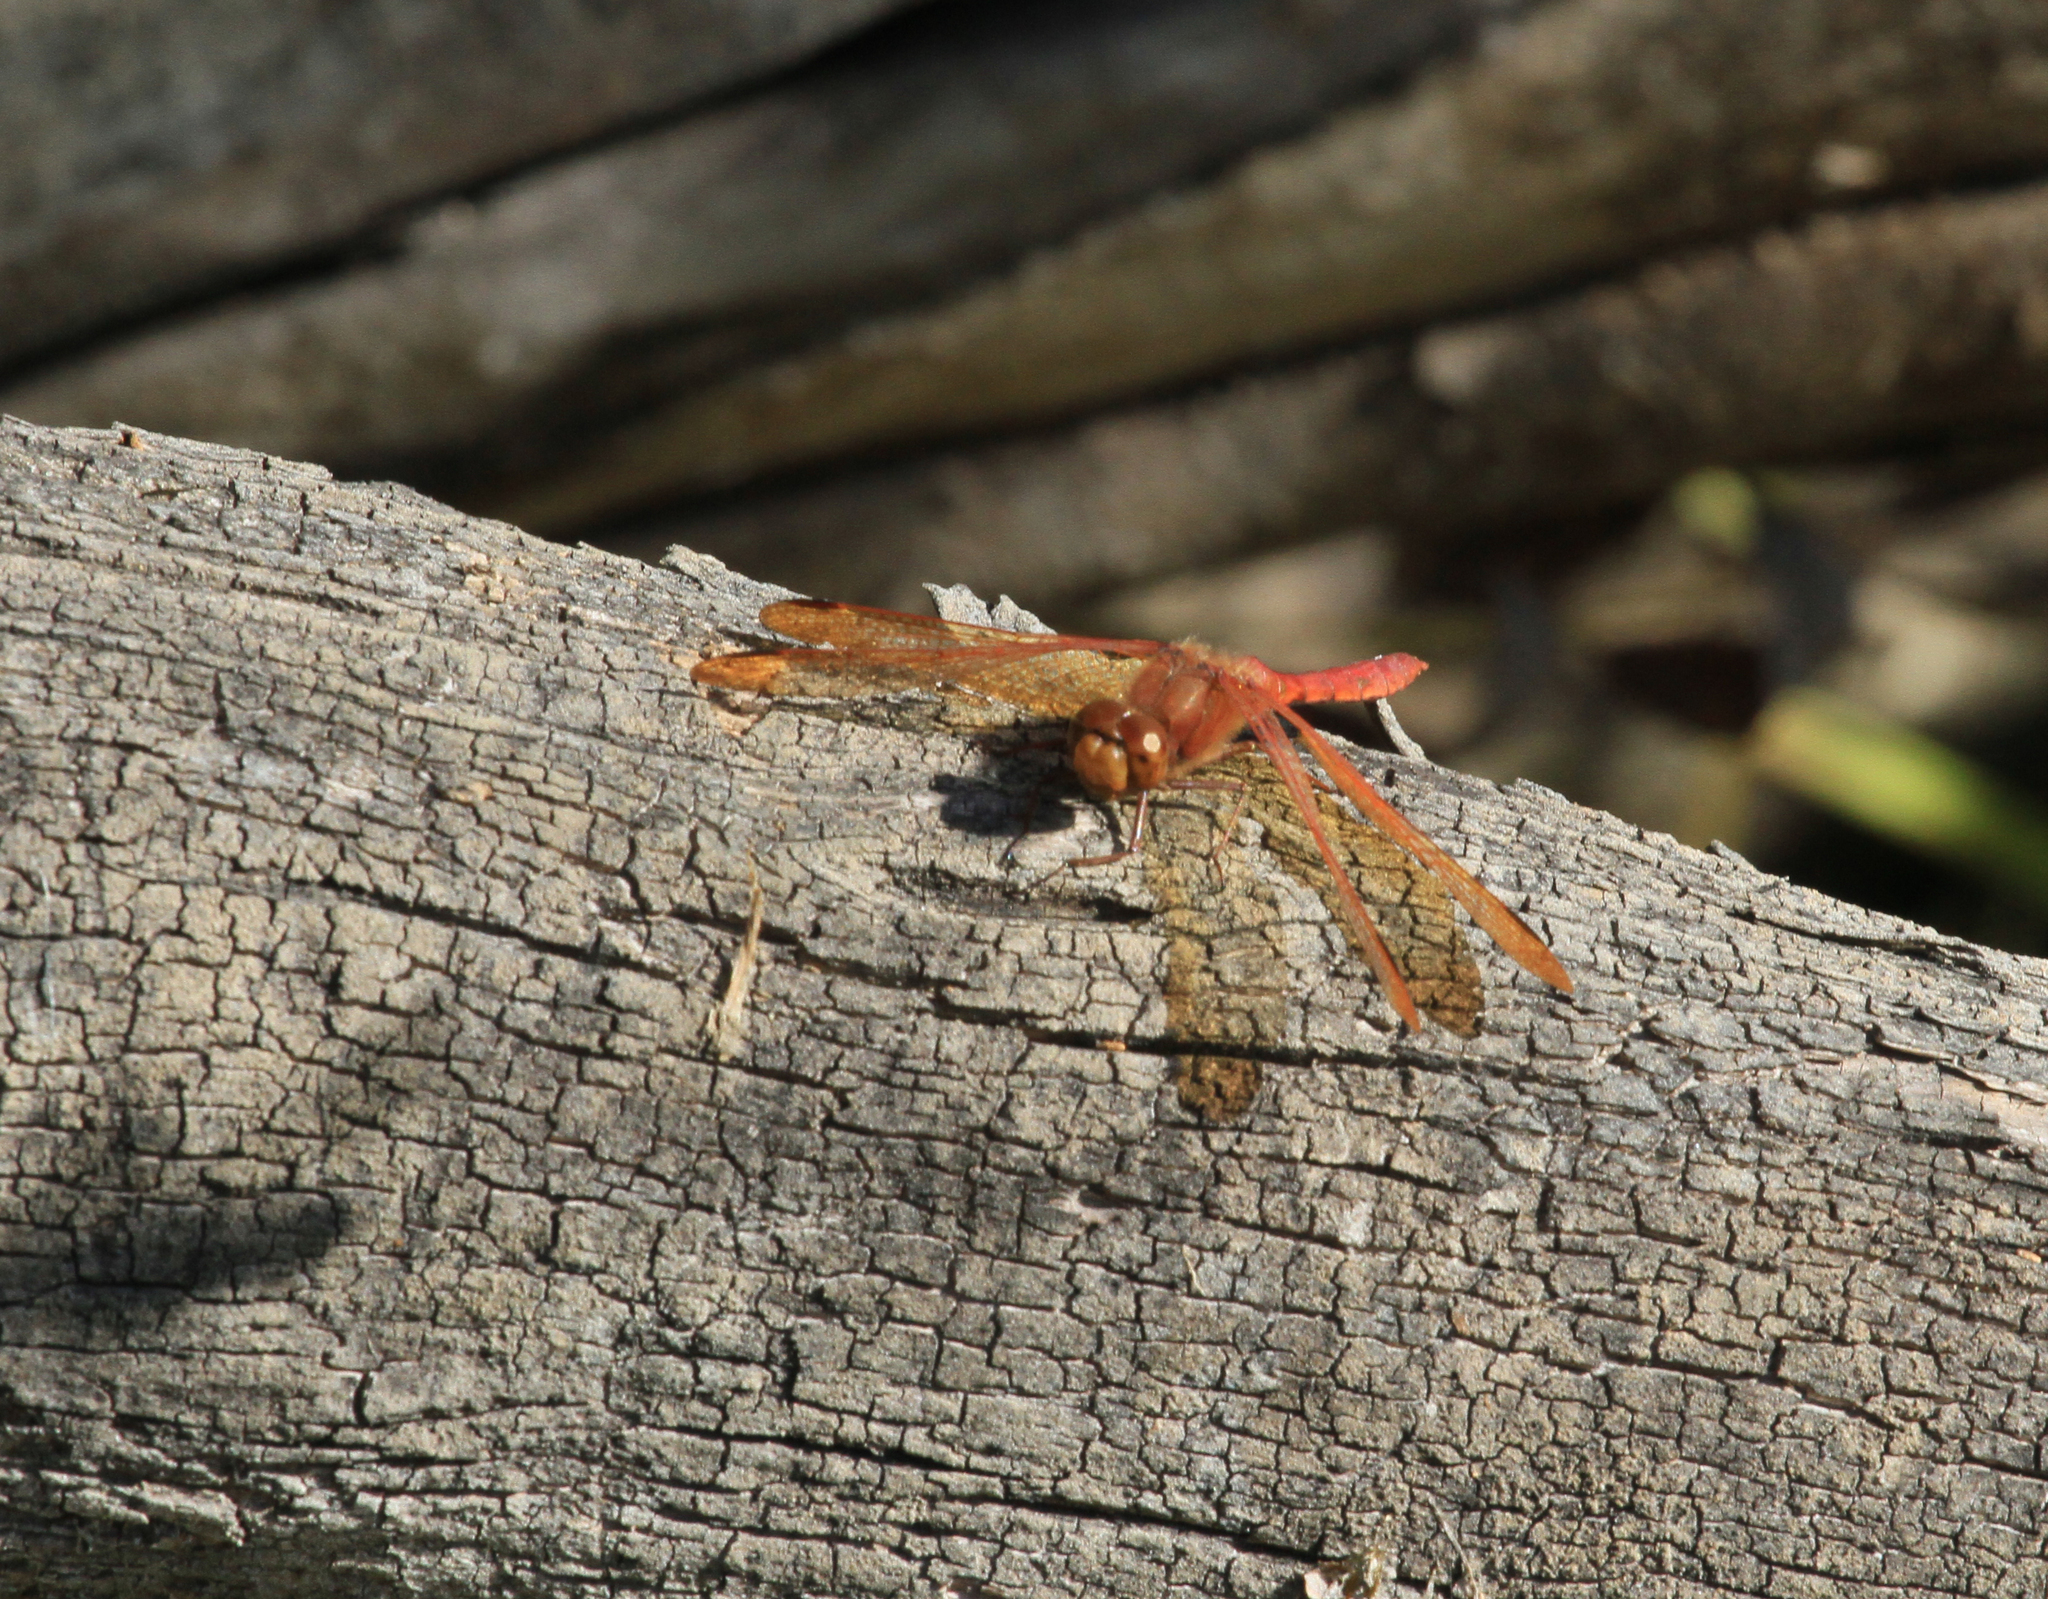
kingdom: Animalia
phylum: Arthropoda
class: Insecta
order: Odonata
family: Libellulidae
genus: Sympetrum
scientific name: Sympetrum croceolum
